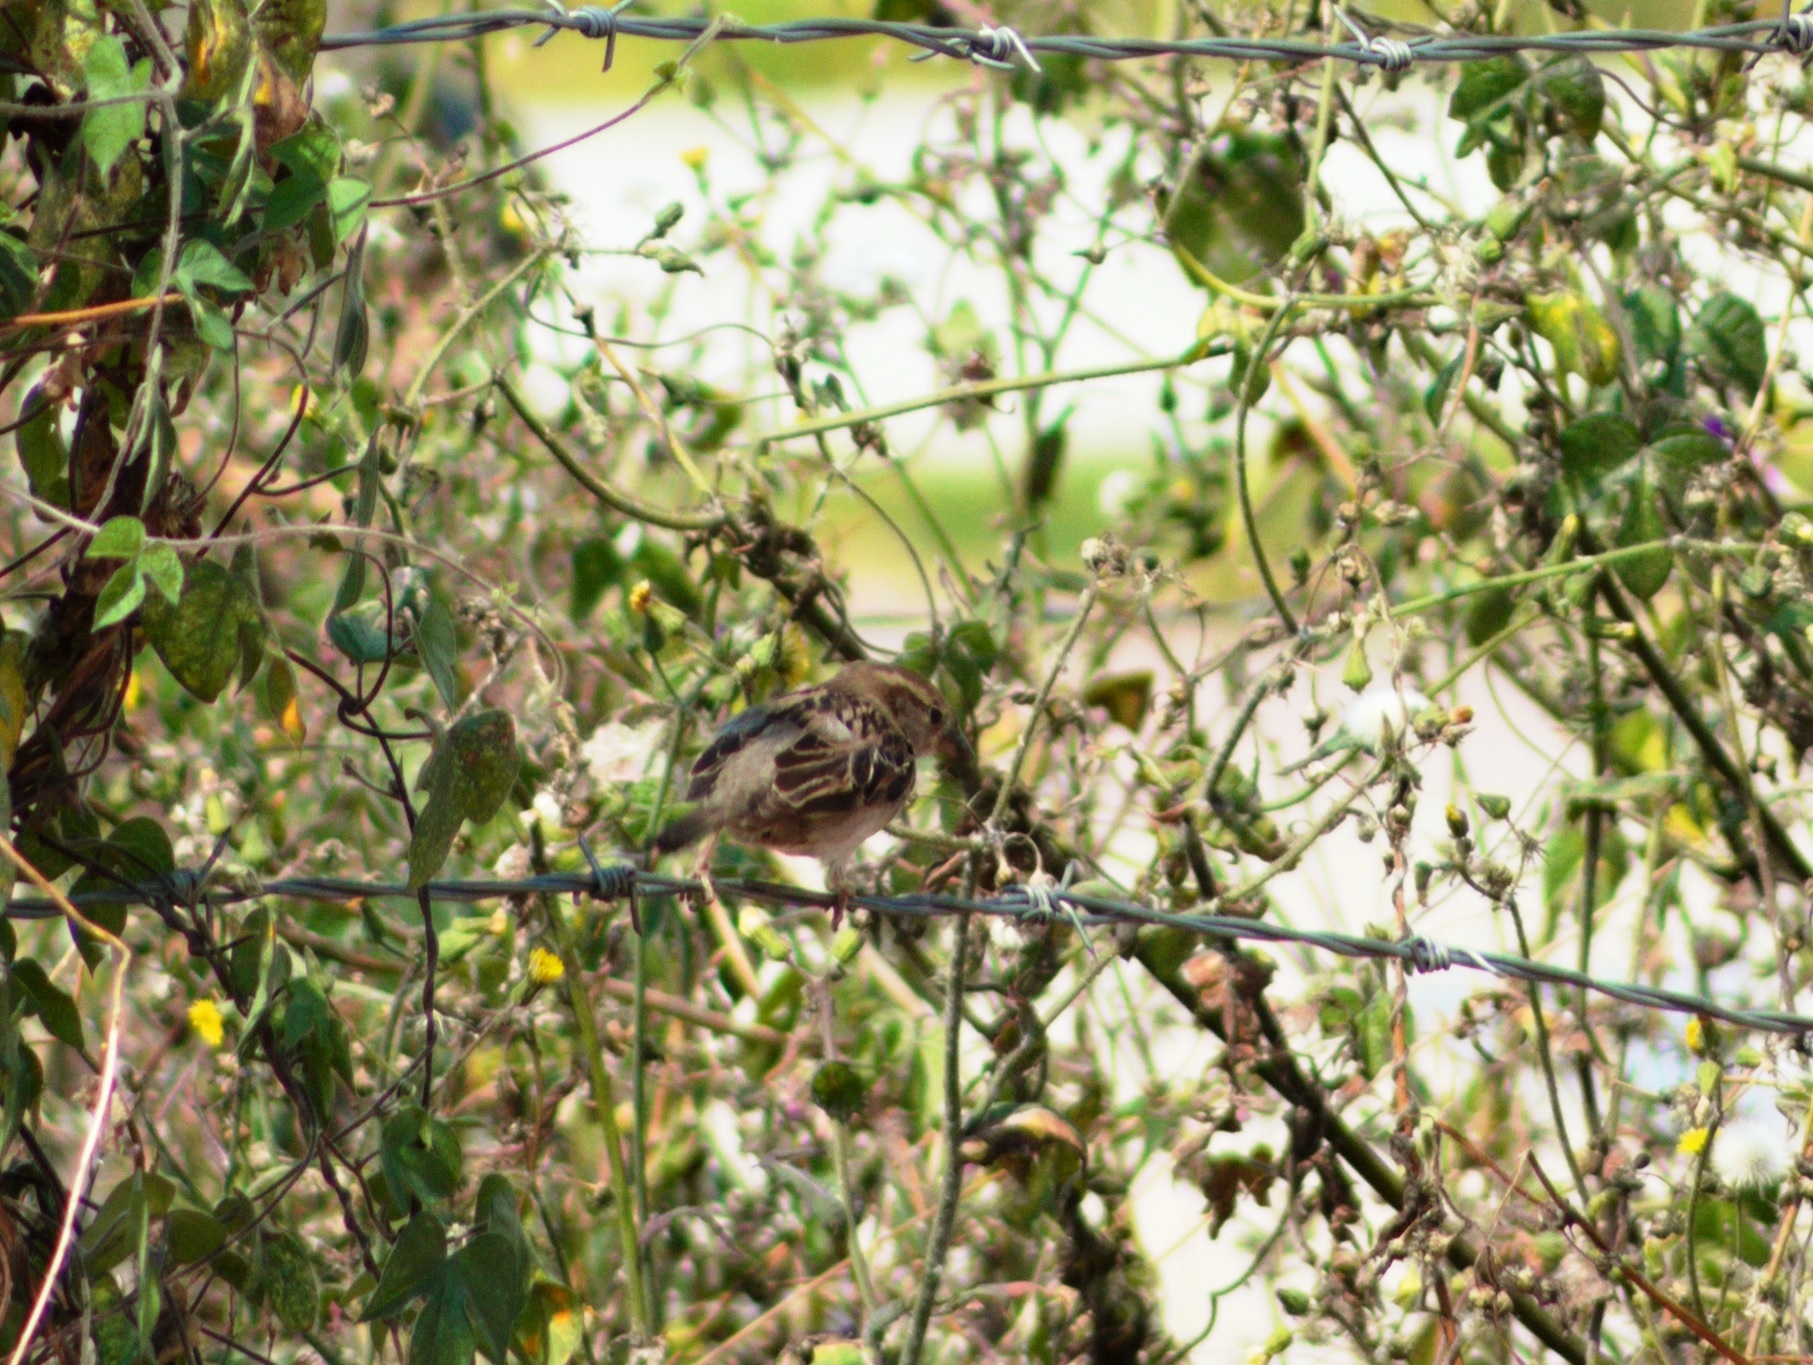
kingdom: Animalia
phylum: Chordata
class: Aves
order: Passeriformes
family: Passeridae
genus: Passer
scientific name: Passer domesticus
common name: House sparrow
